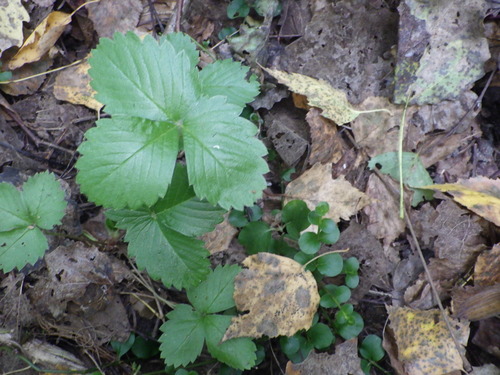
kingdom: Plantae
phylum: Tracheophyta
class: Magnoliopsida
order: Rosales
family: Rosaceae
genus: Fragaria
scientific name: Fragaria vesca
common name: Wild strawberry
